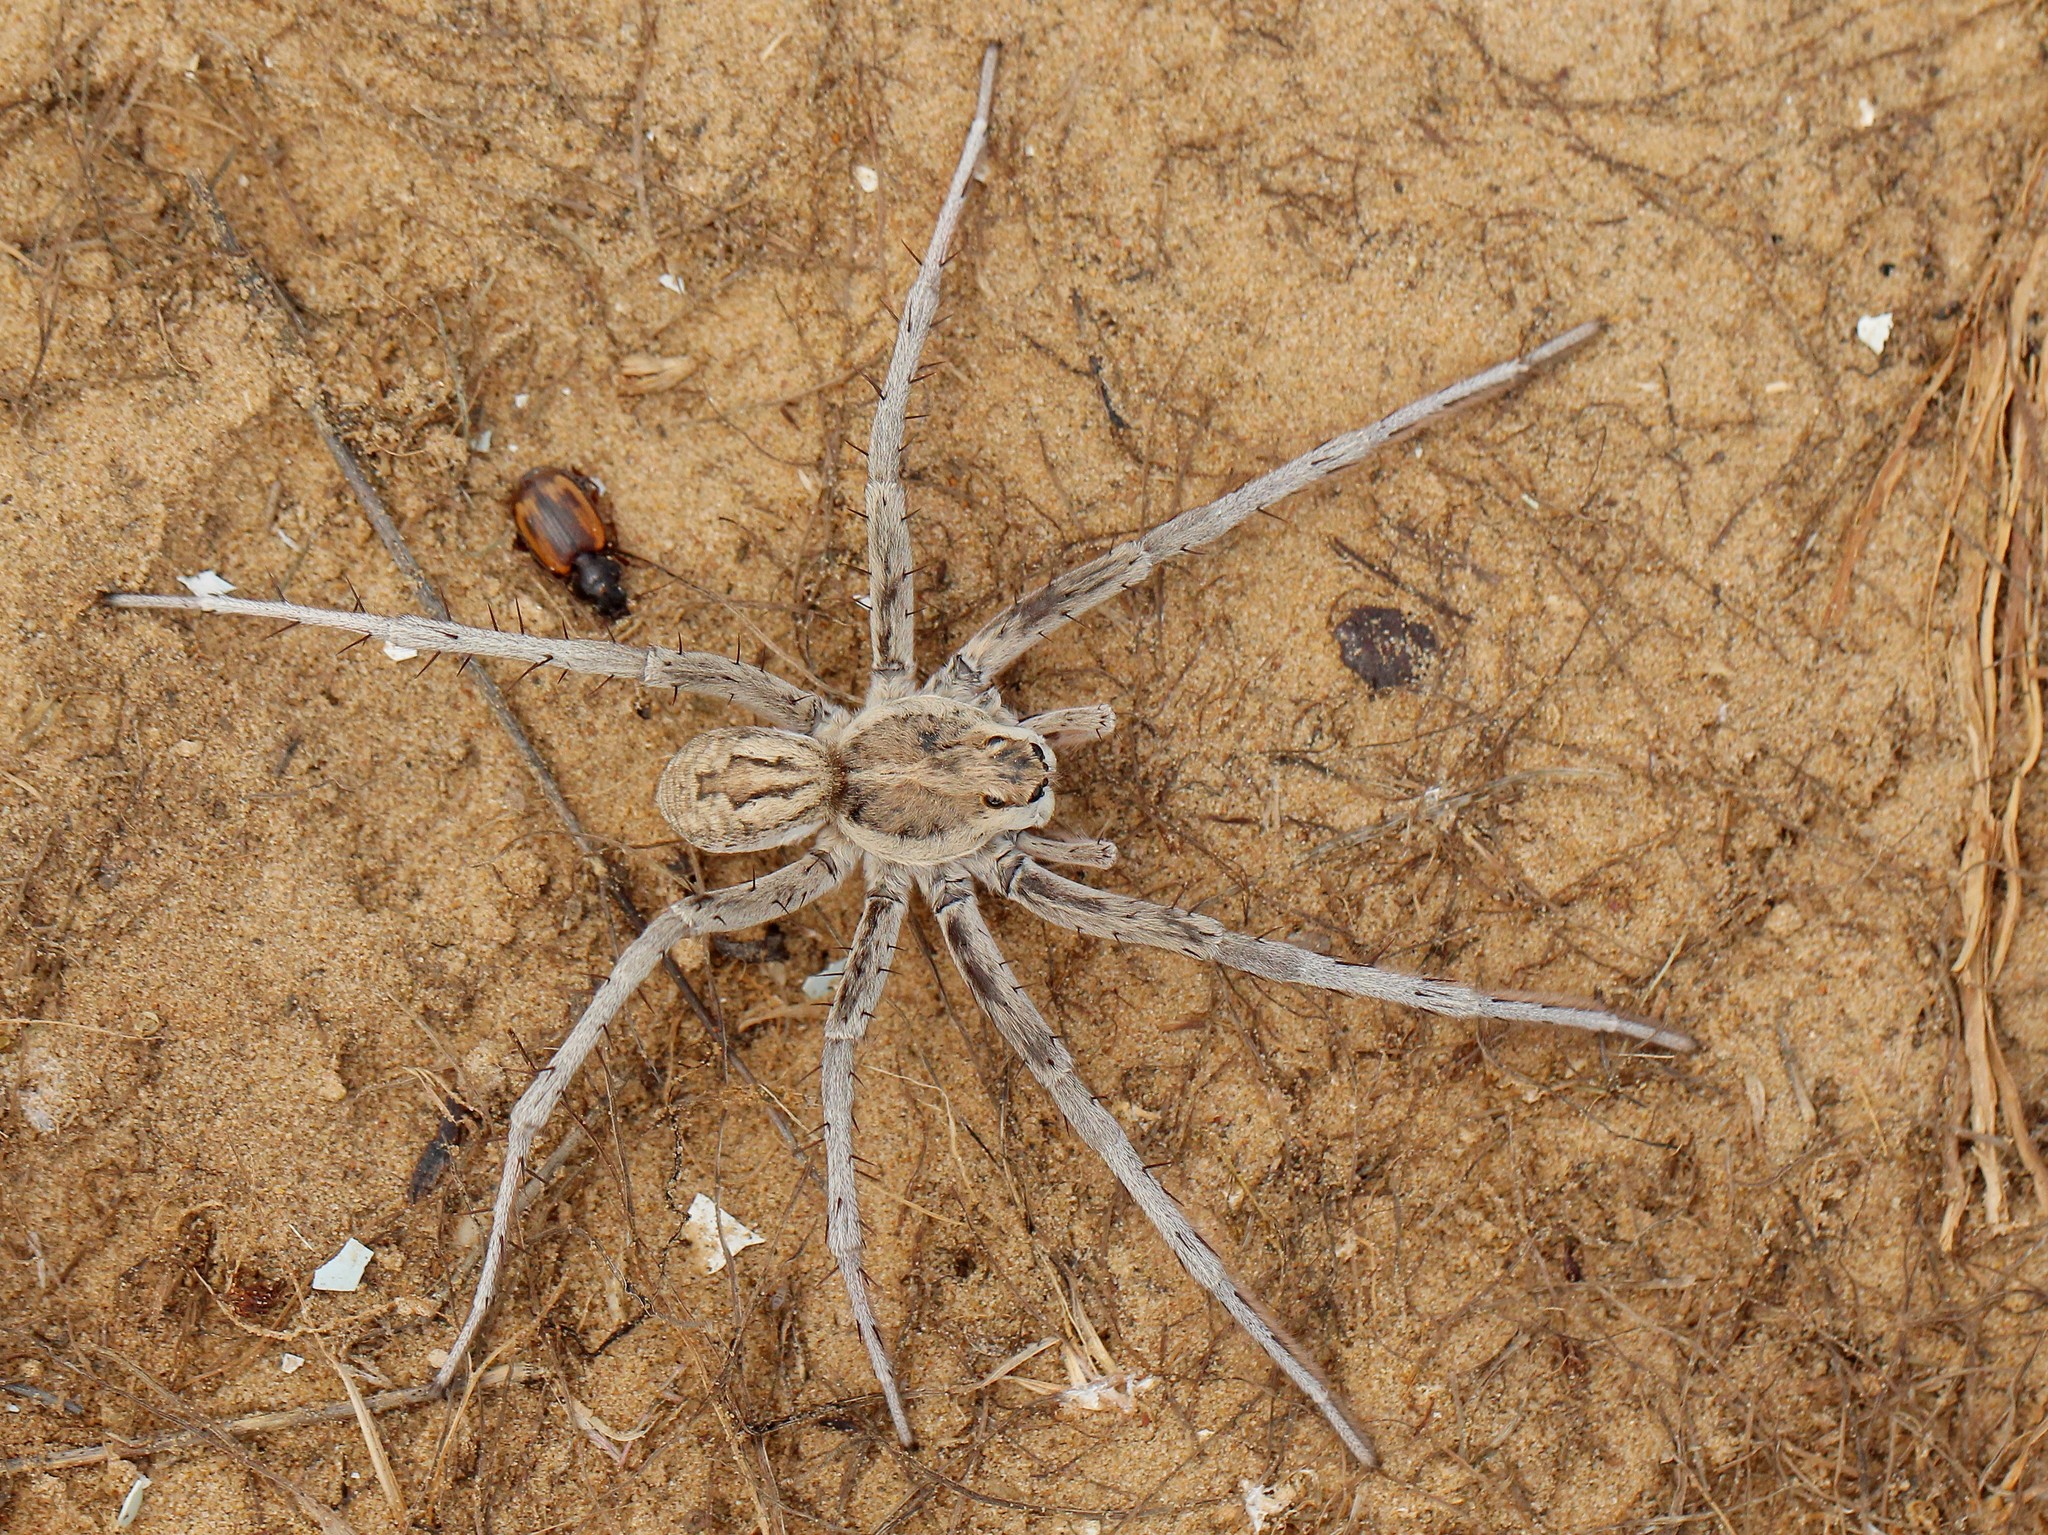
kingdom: Animalia
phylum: Arthropoda
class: Arachnida
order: Araneae
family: Lycosidae
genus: Karakumosa
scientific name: Karakumosa shmatkoi
